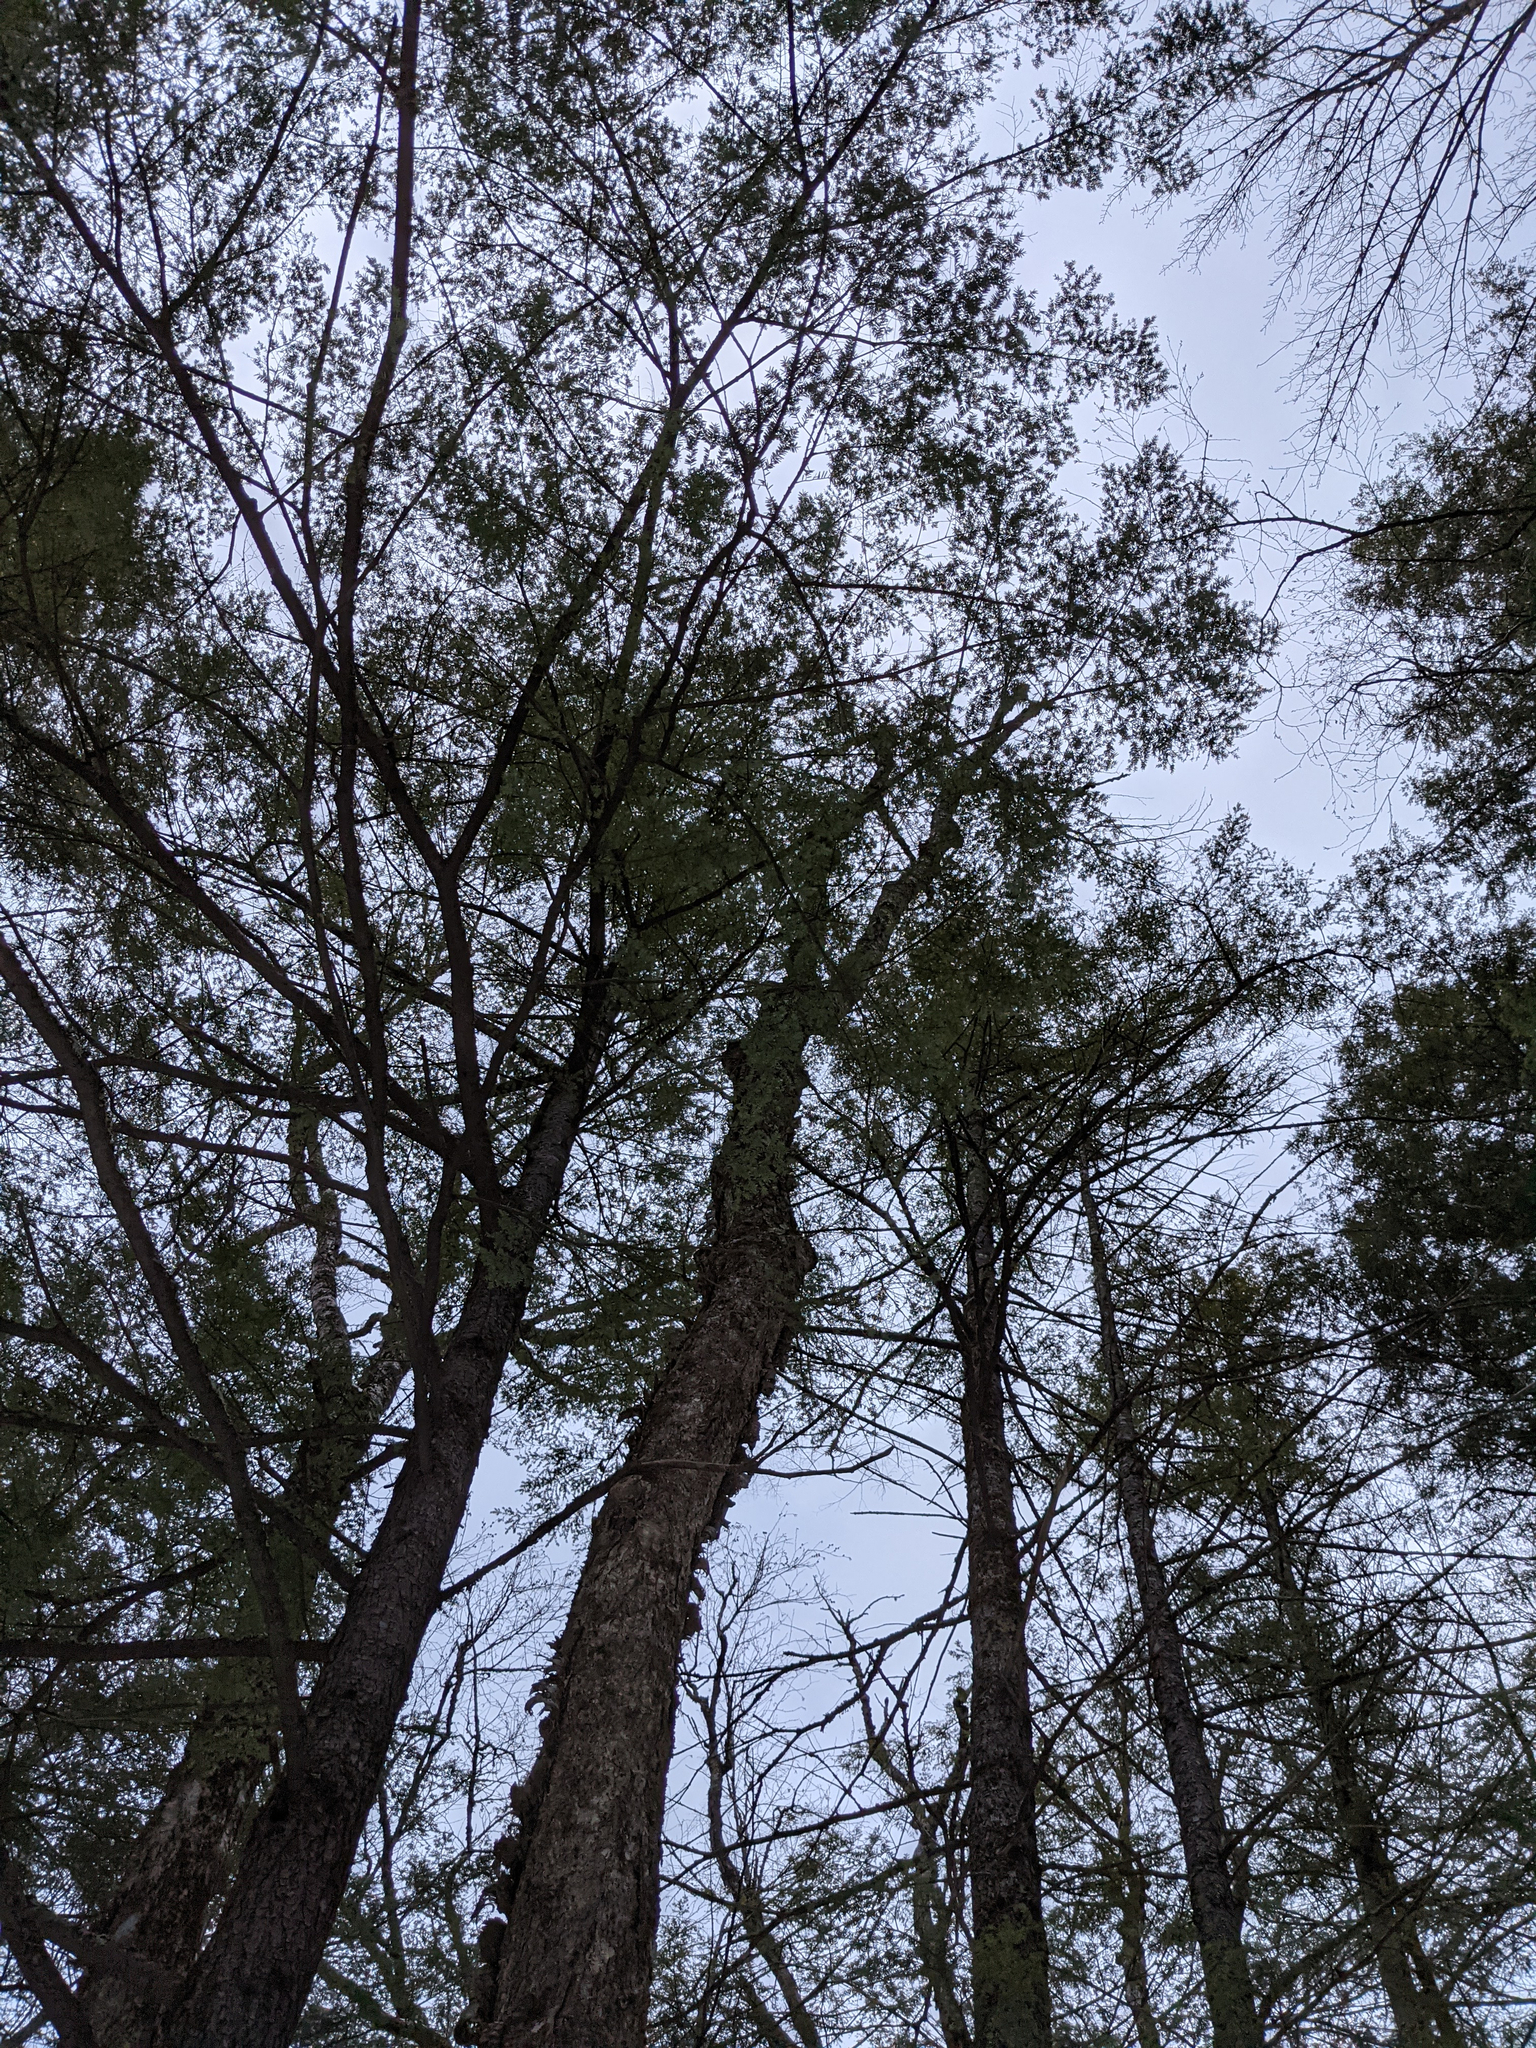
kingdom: Plantae
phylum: Tracheophyta
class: Magnoliopsida
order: Fagales
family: Betulaceae
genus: Betula
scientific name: Betula alleghaniensis
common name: Yellow birch
